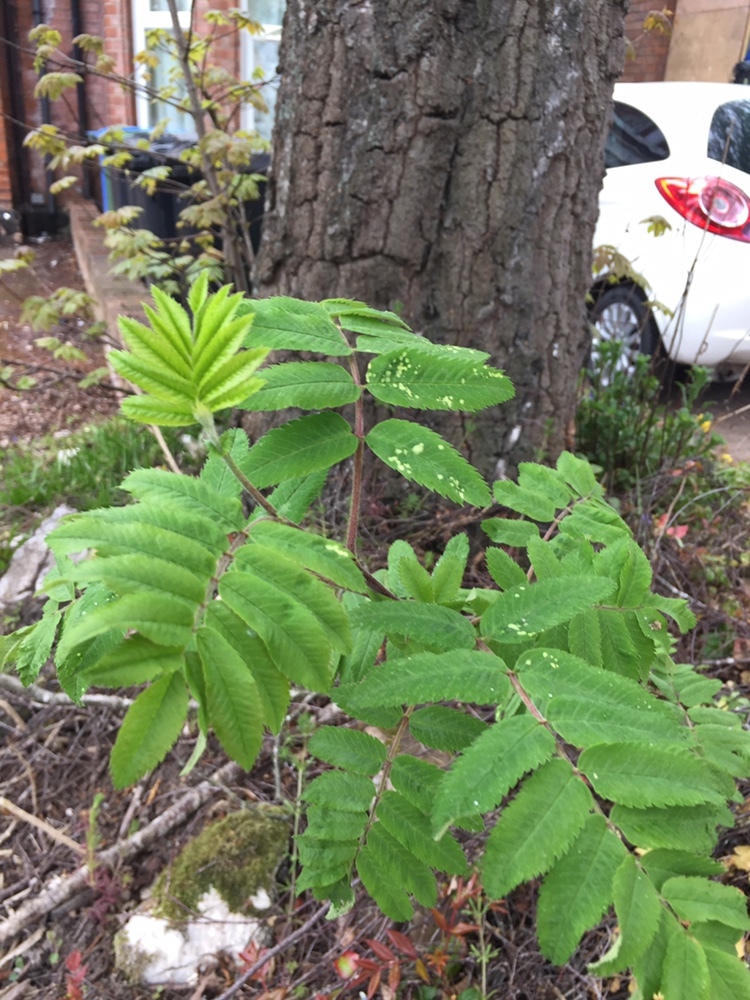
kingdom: Plantae
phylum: Tracheophyta
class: Magnoliopsida
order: Rosales
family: Rosaceae
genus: Sorbus
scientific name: Sorbus aucuparia
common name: Rowan
